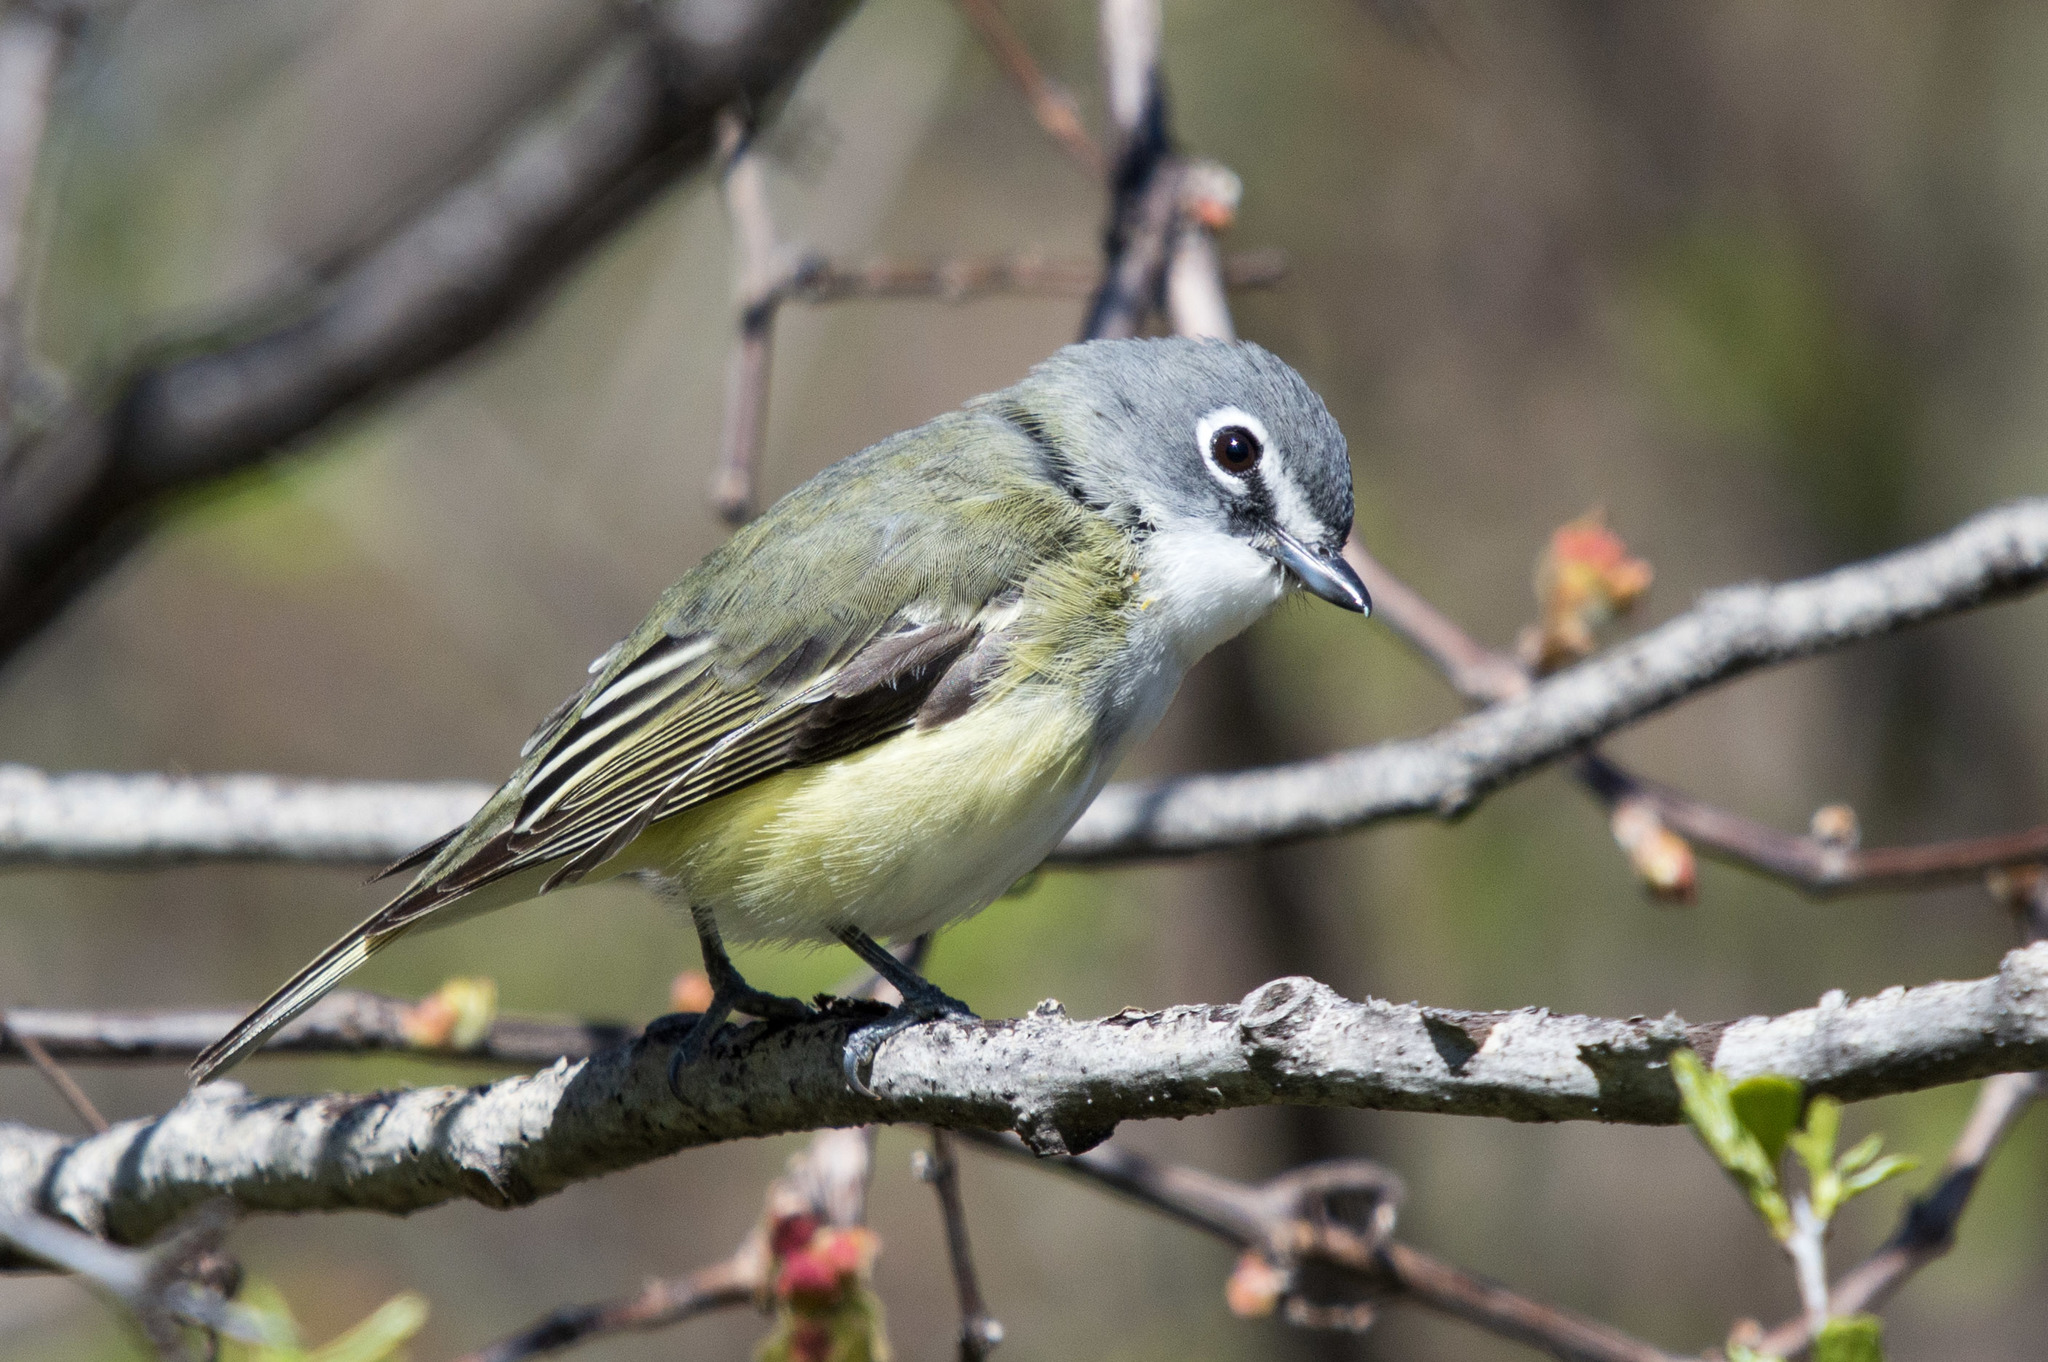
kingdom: Animalia
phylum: Chordata
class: Aves
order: Passeriformes
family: Vireonidae
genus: Vireo
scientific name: Vireo solitarius
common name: Blue-headed vireo
